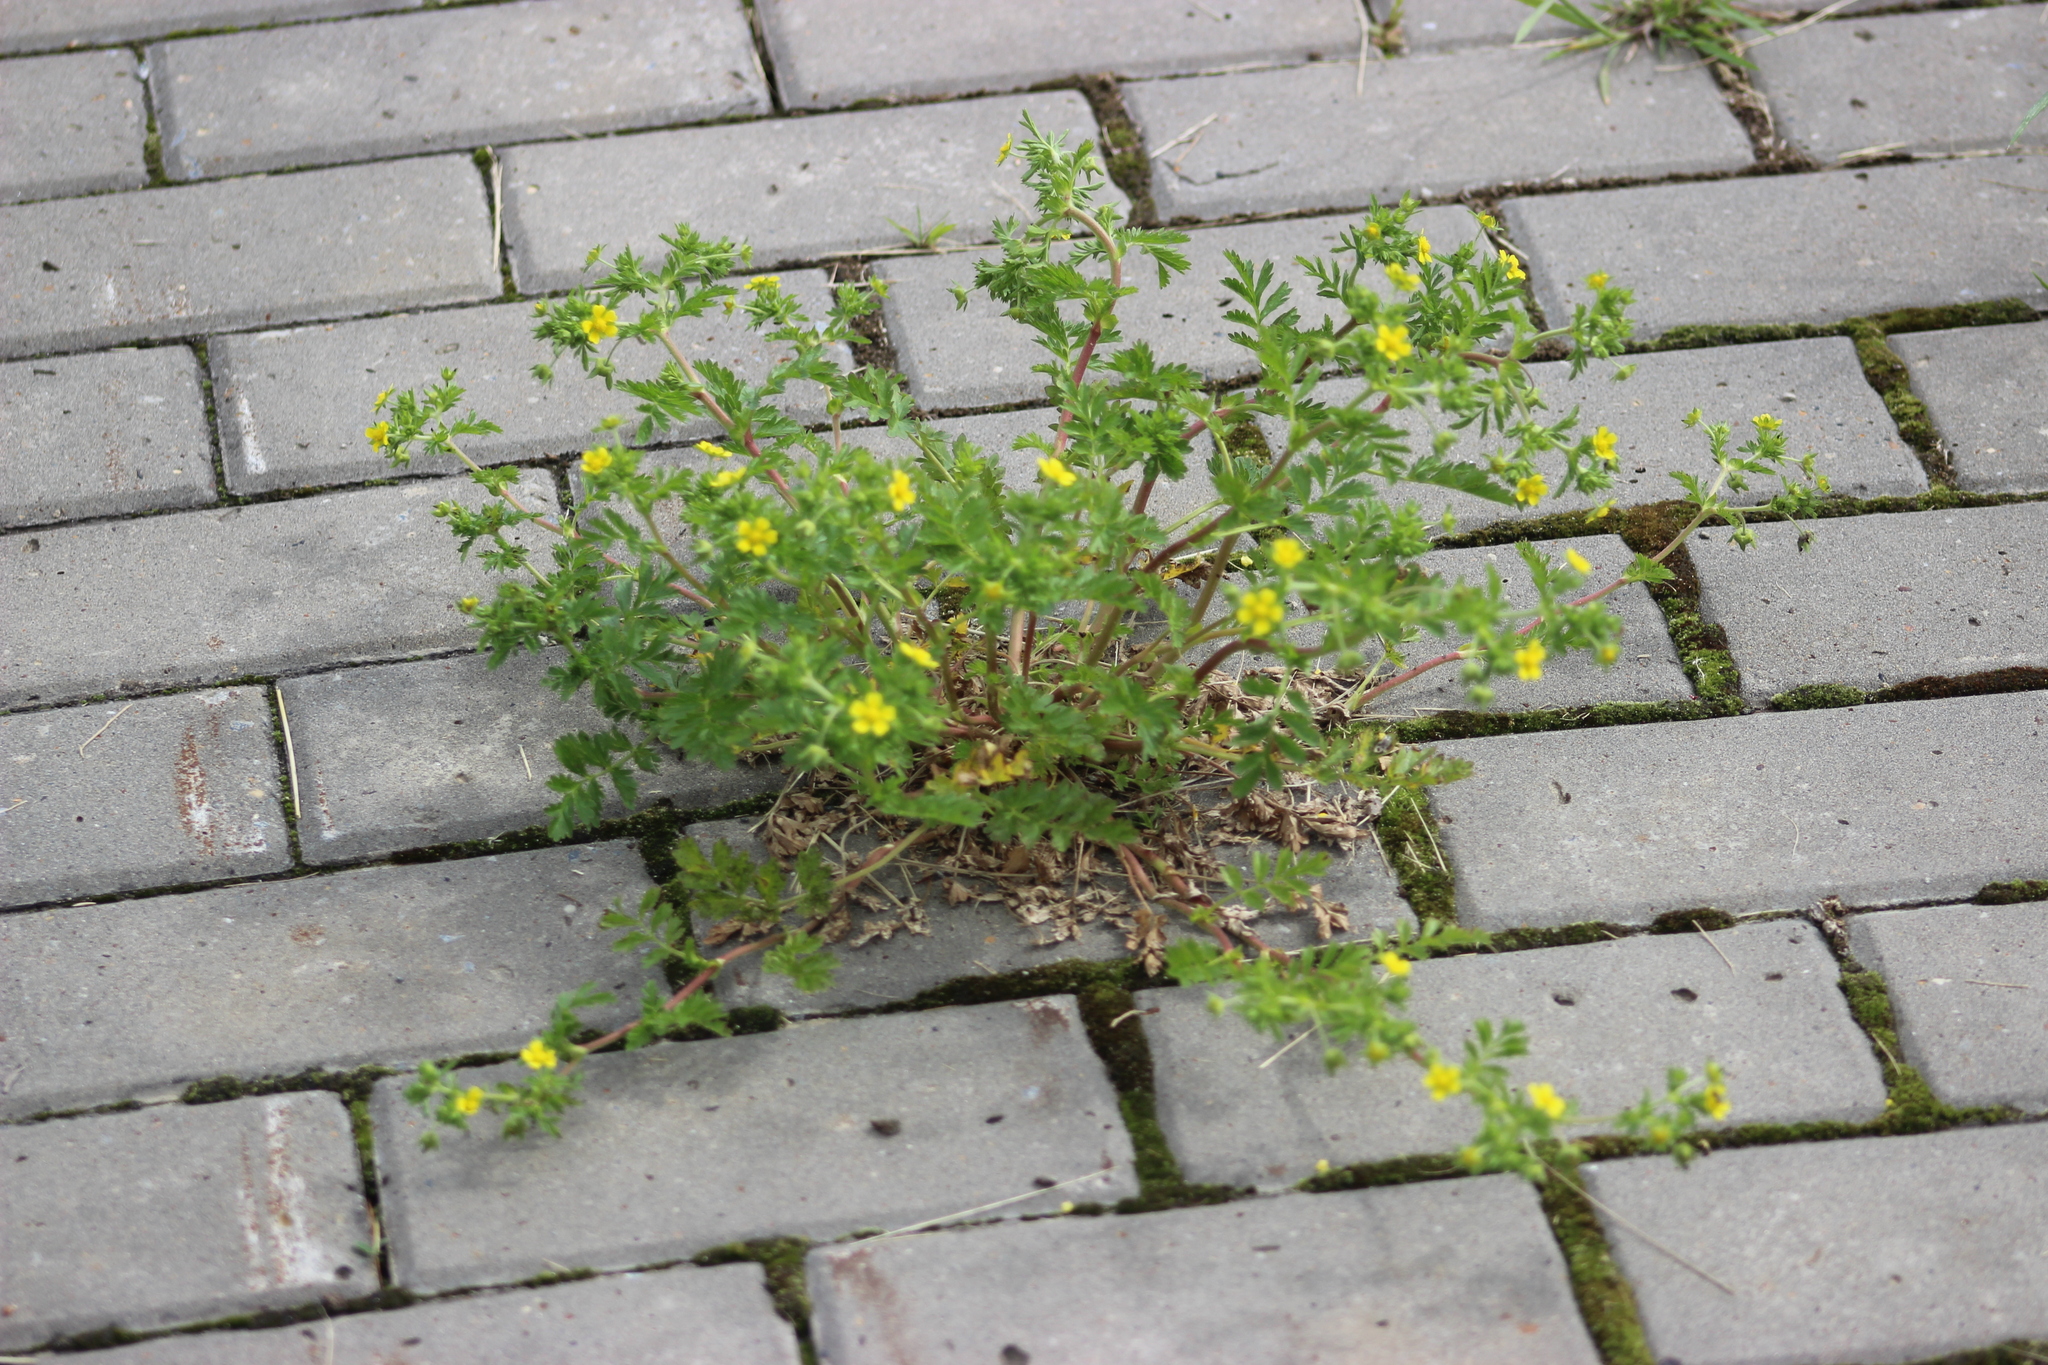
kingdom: Plantae
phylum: Tracheophyta
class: Magnoliopsida
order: Rosales
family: Rosaceae
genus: Potentilla
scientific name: Potentilla supina
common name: Prostrate cinquefoil
